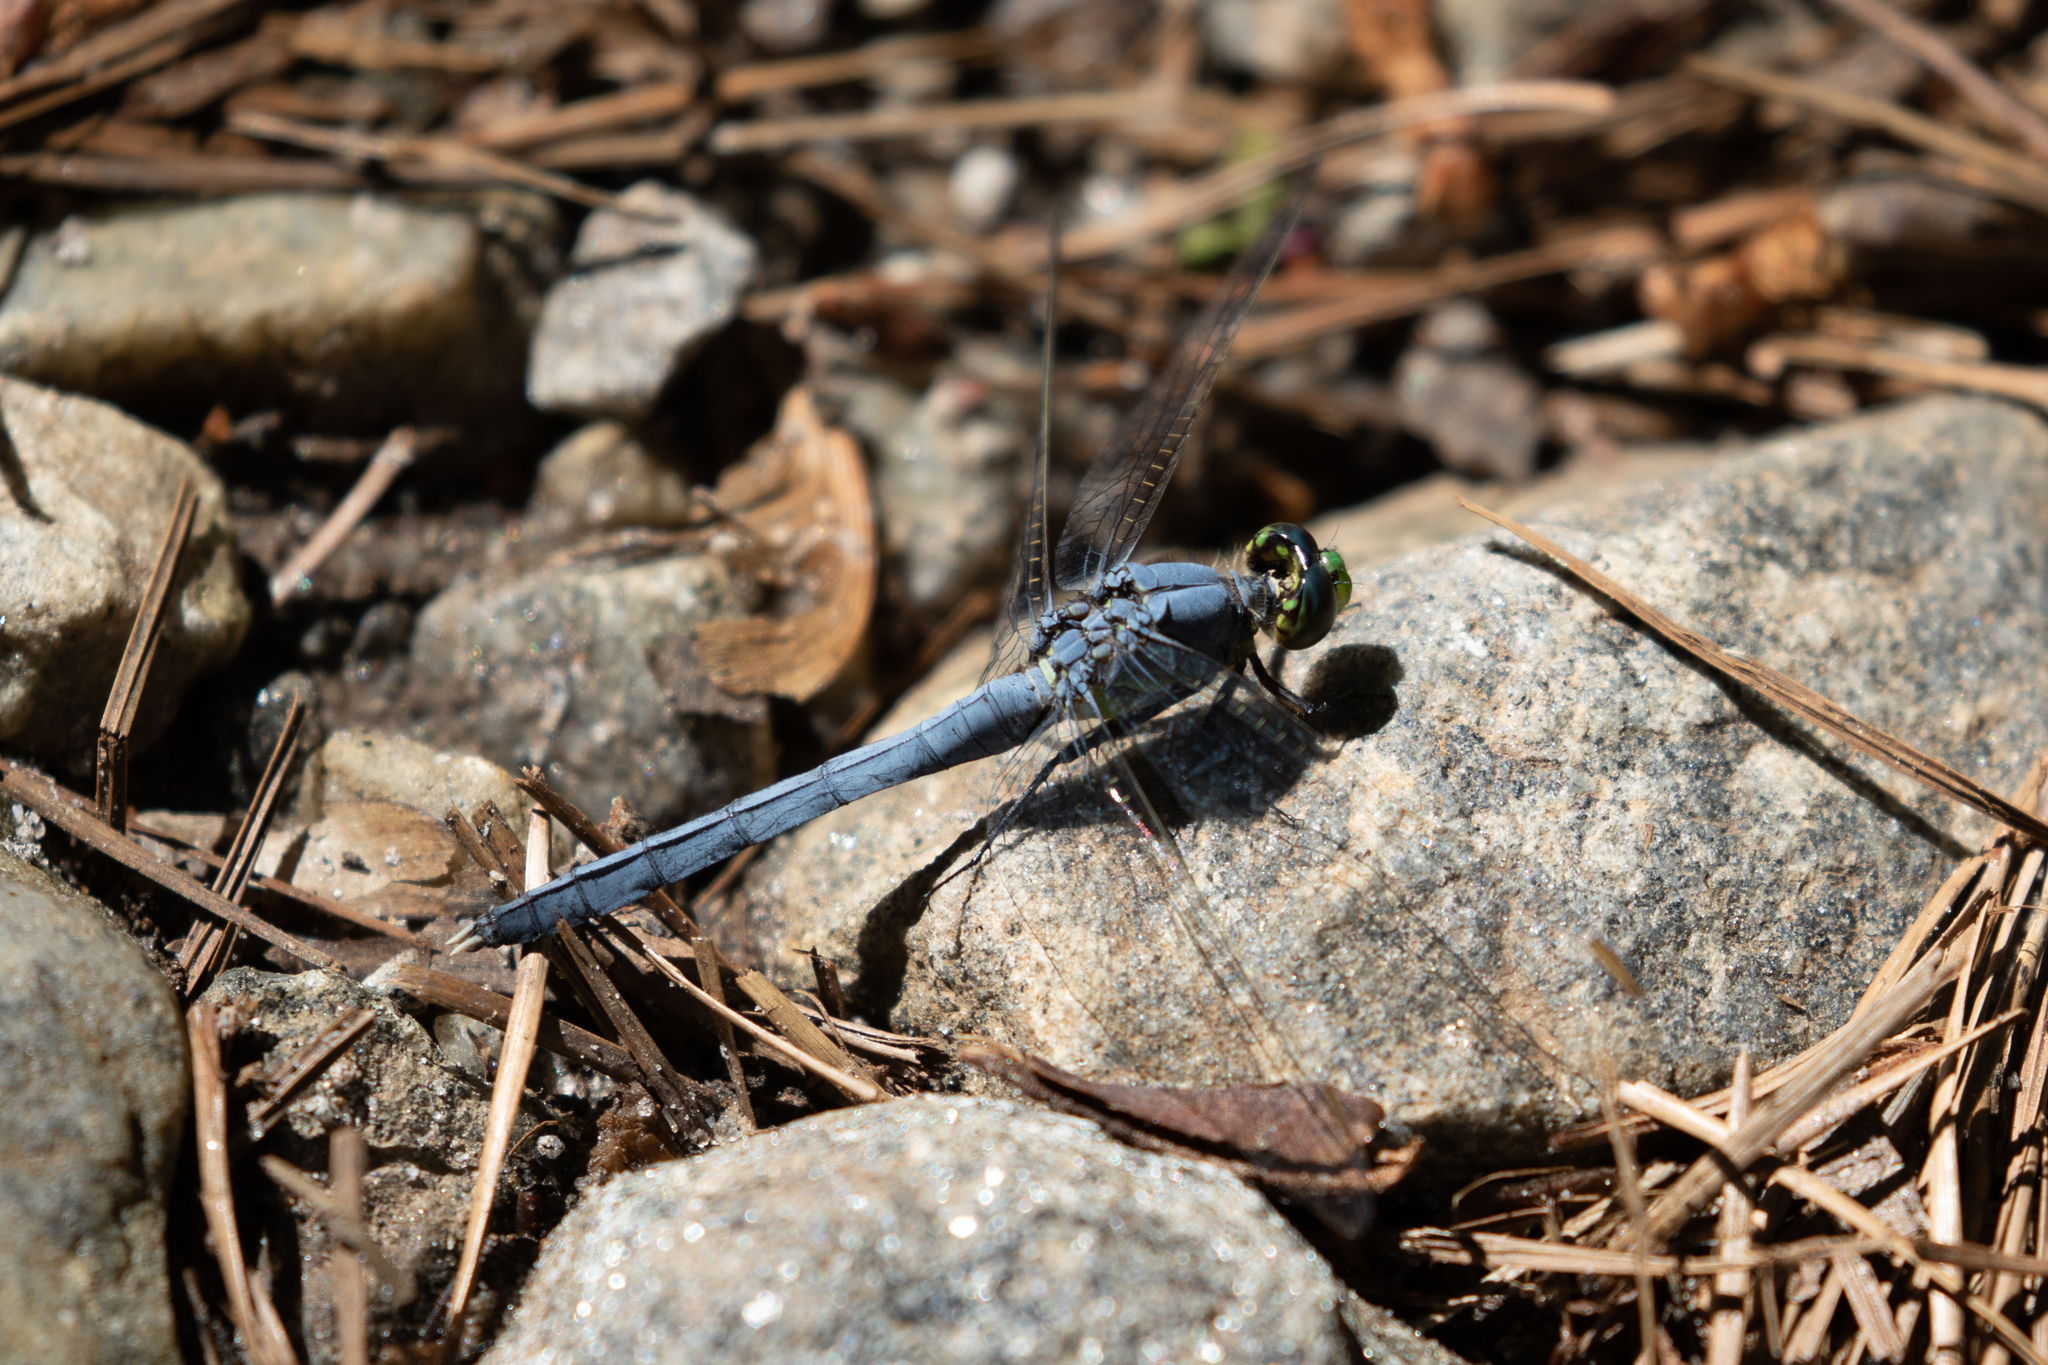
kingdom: Animalia
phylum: Arthropoda
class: Insecta
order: Odonata
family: Libellulidae
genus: Erythemis
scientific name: Erythemis simplicicollis
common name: Eastern pondhawk
